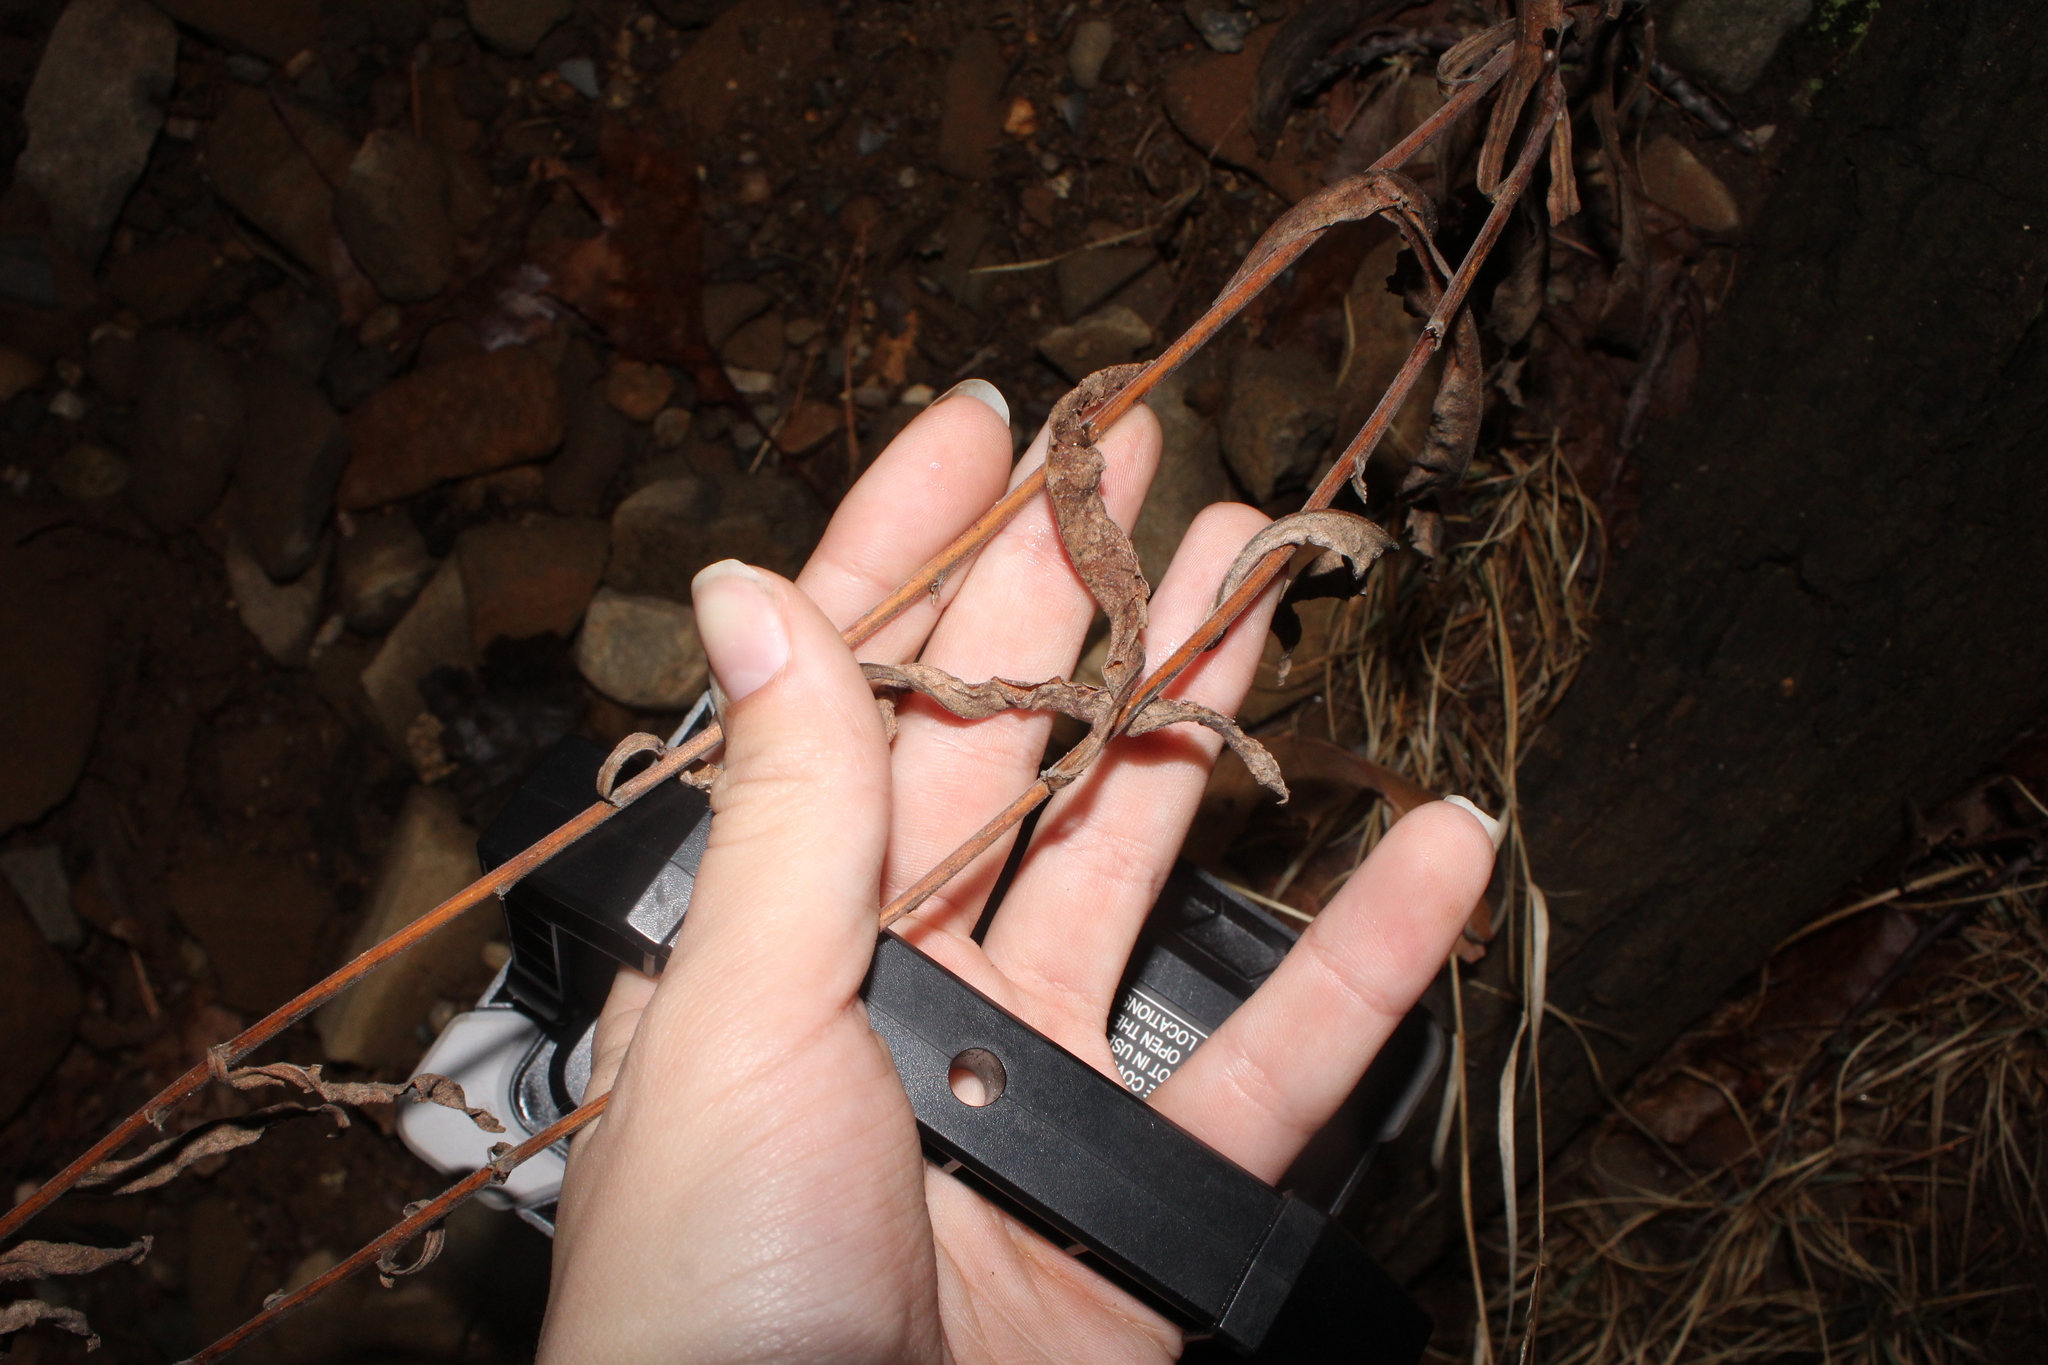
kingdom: Plantae
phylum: Tracheophyta
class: Magnoliopsida
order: Asterales
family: Asteraceae
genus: Solidago
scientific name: Solidago nemoralis
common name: Grey goldenrod
